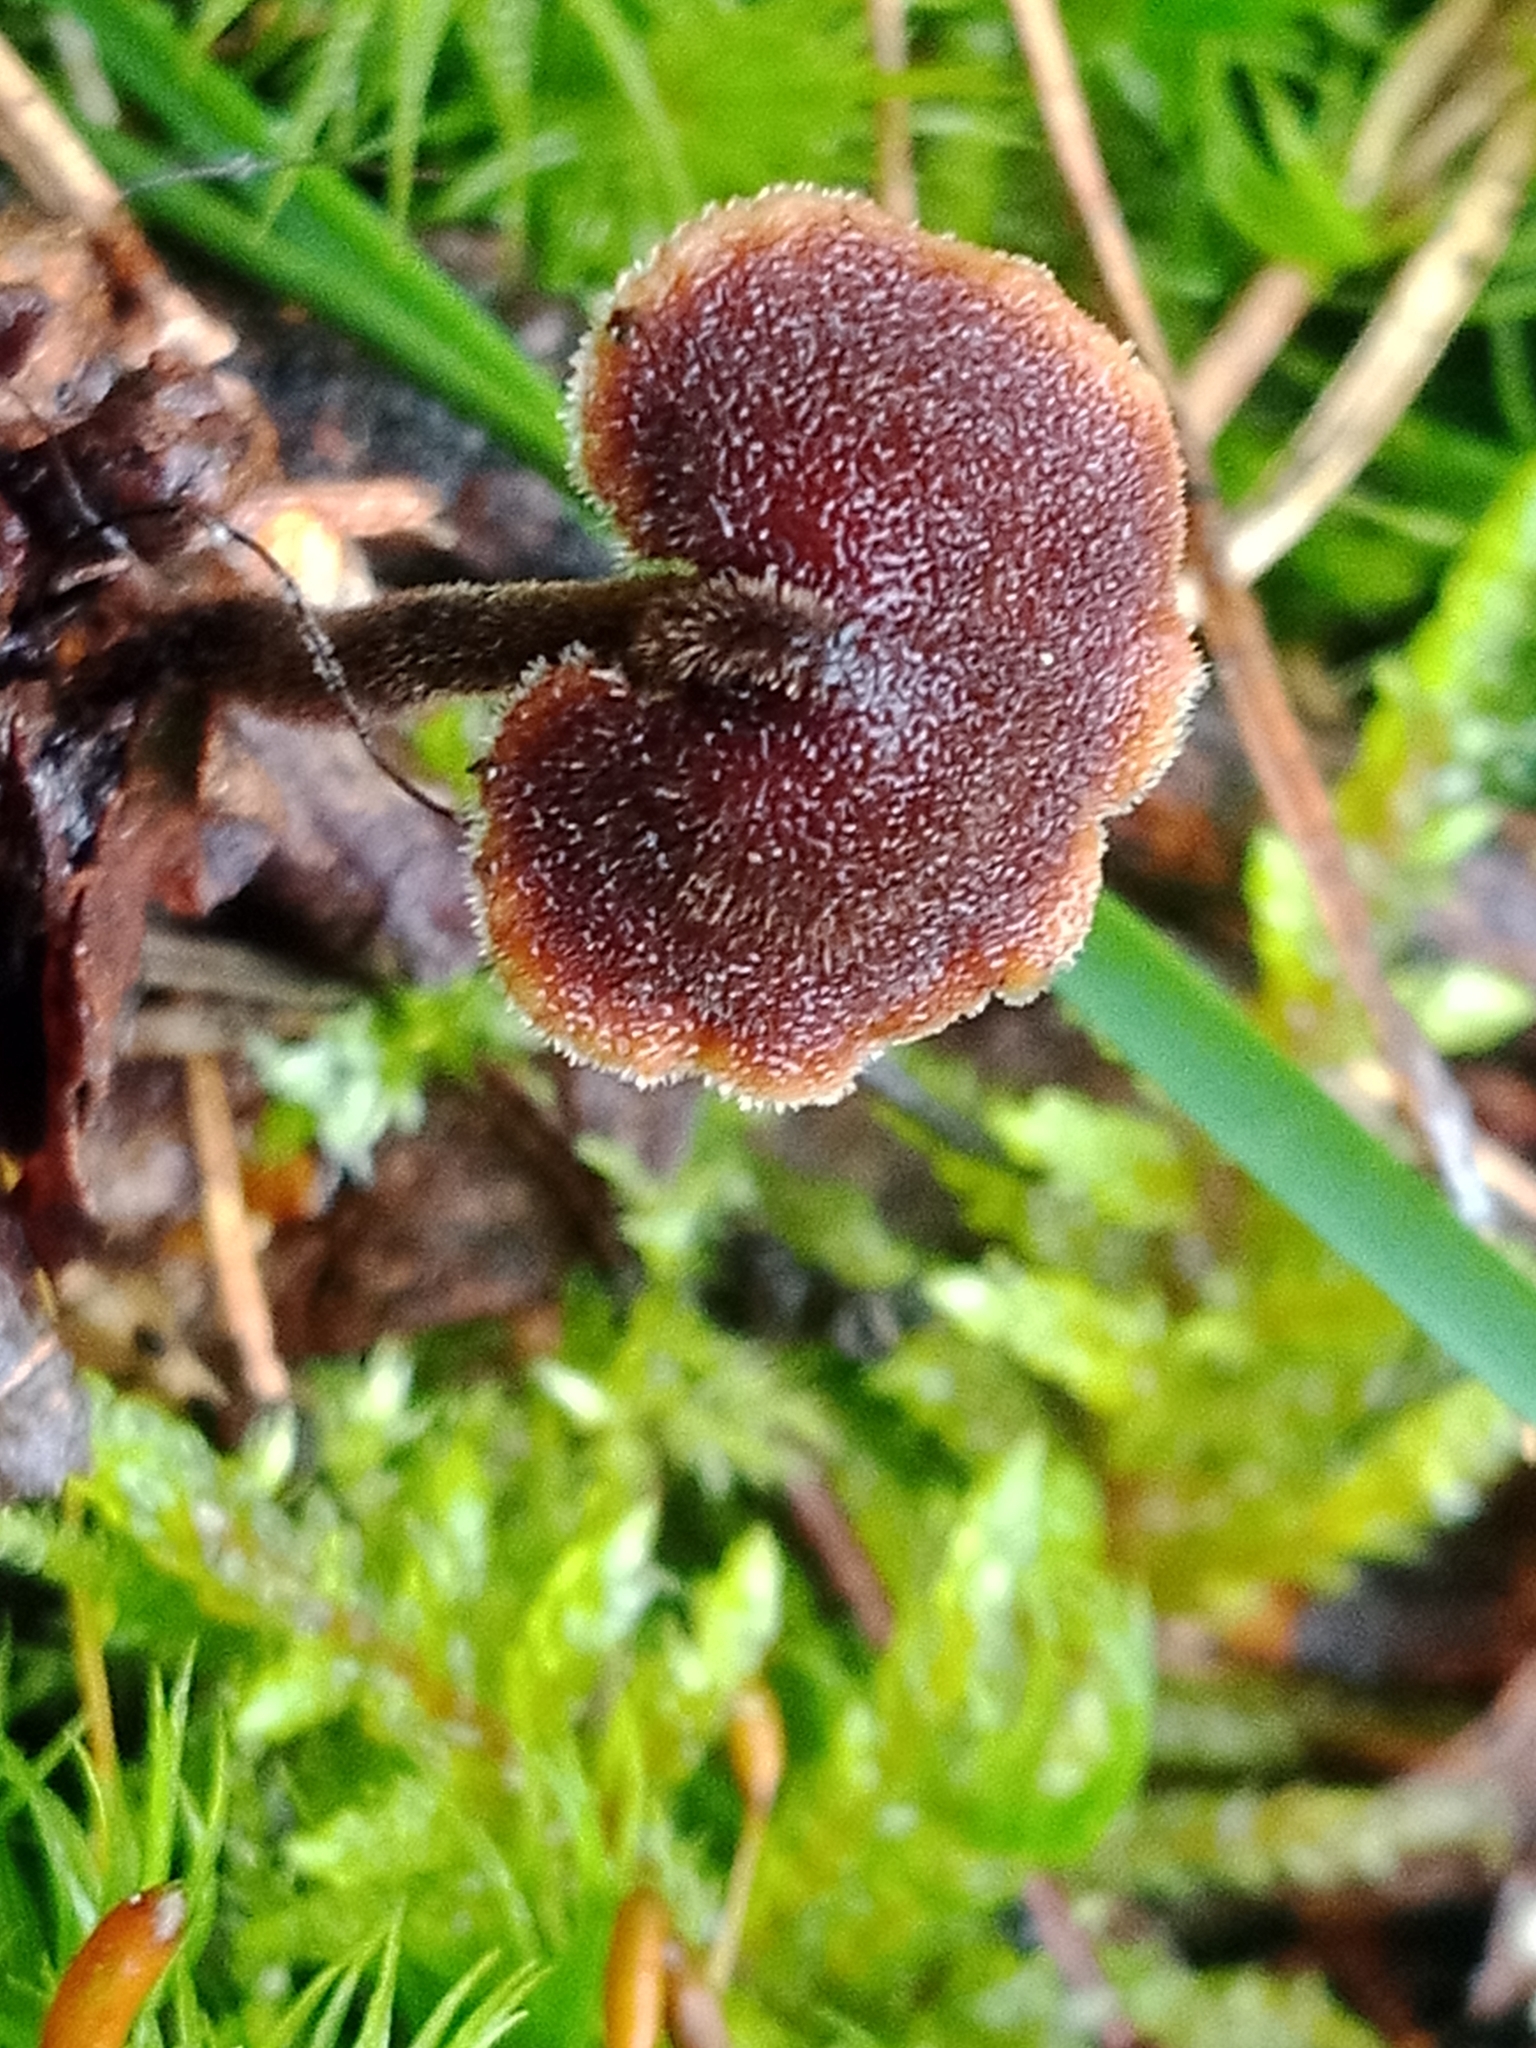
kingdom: Fungi
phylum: Basidiomycota
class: Agaricomycetes
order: Russulales
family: Auriscalpiaceae
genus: Auriscalpium
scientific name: Auriscalpium vulgare
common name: Earpick fungus
